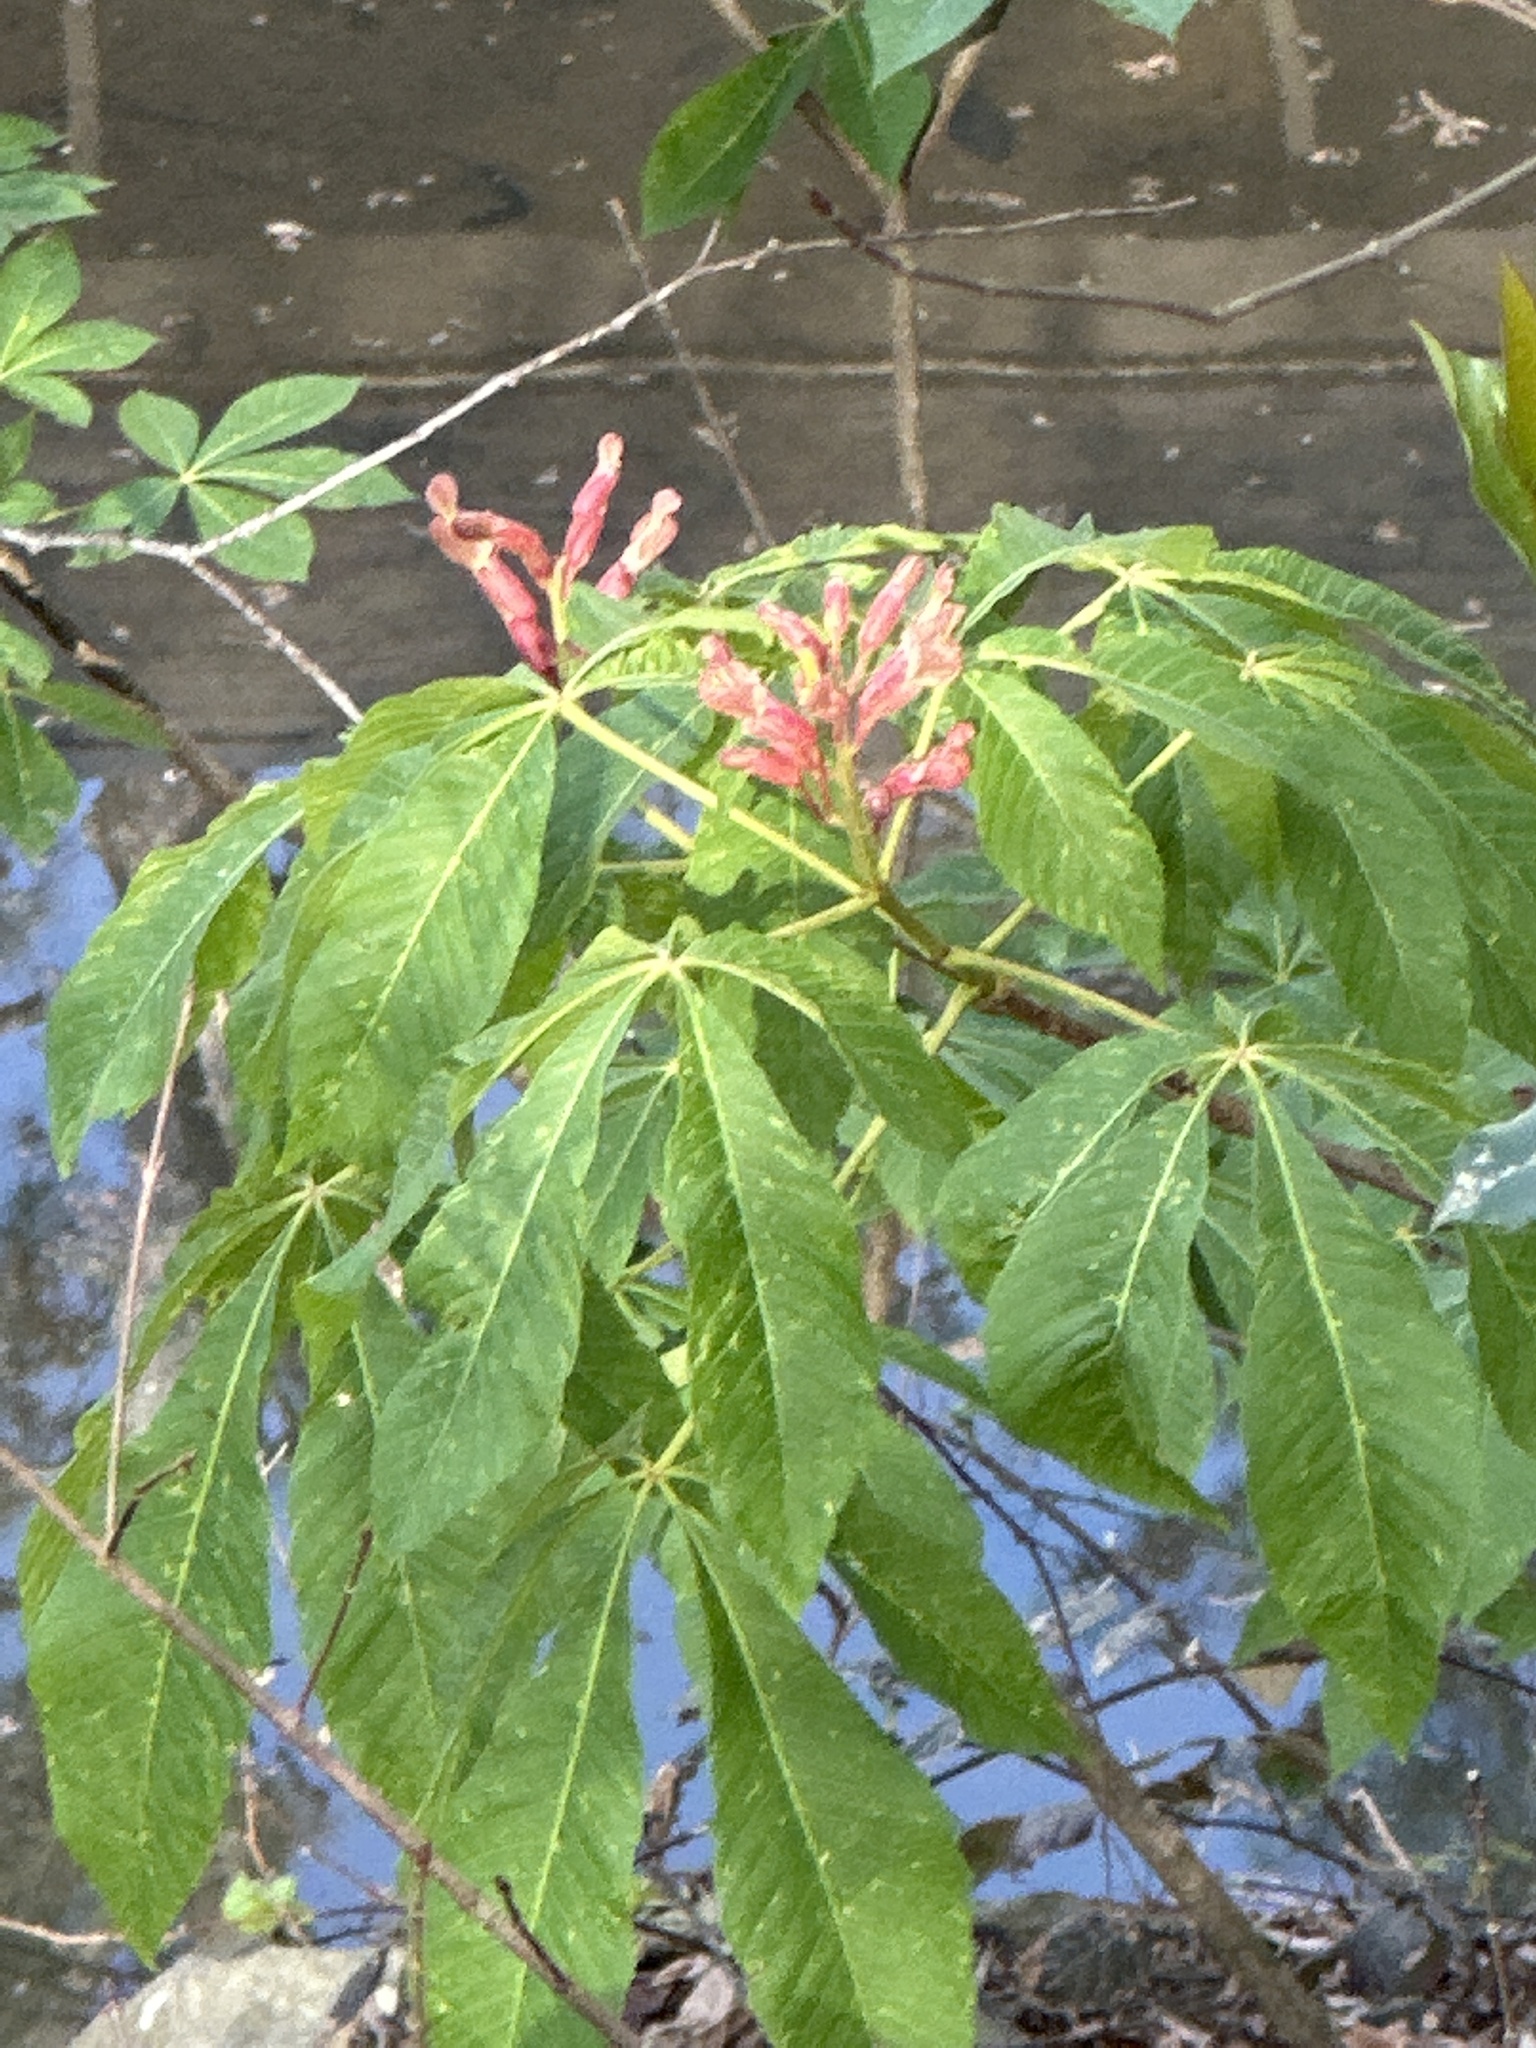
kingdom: Plantae
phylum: Tracheophyta
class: Magnoliopsida
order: Sapindales
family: Sapindaceae
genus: Aesculus
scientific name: Aesculus mutabilis
